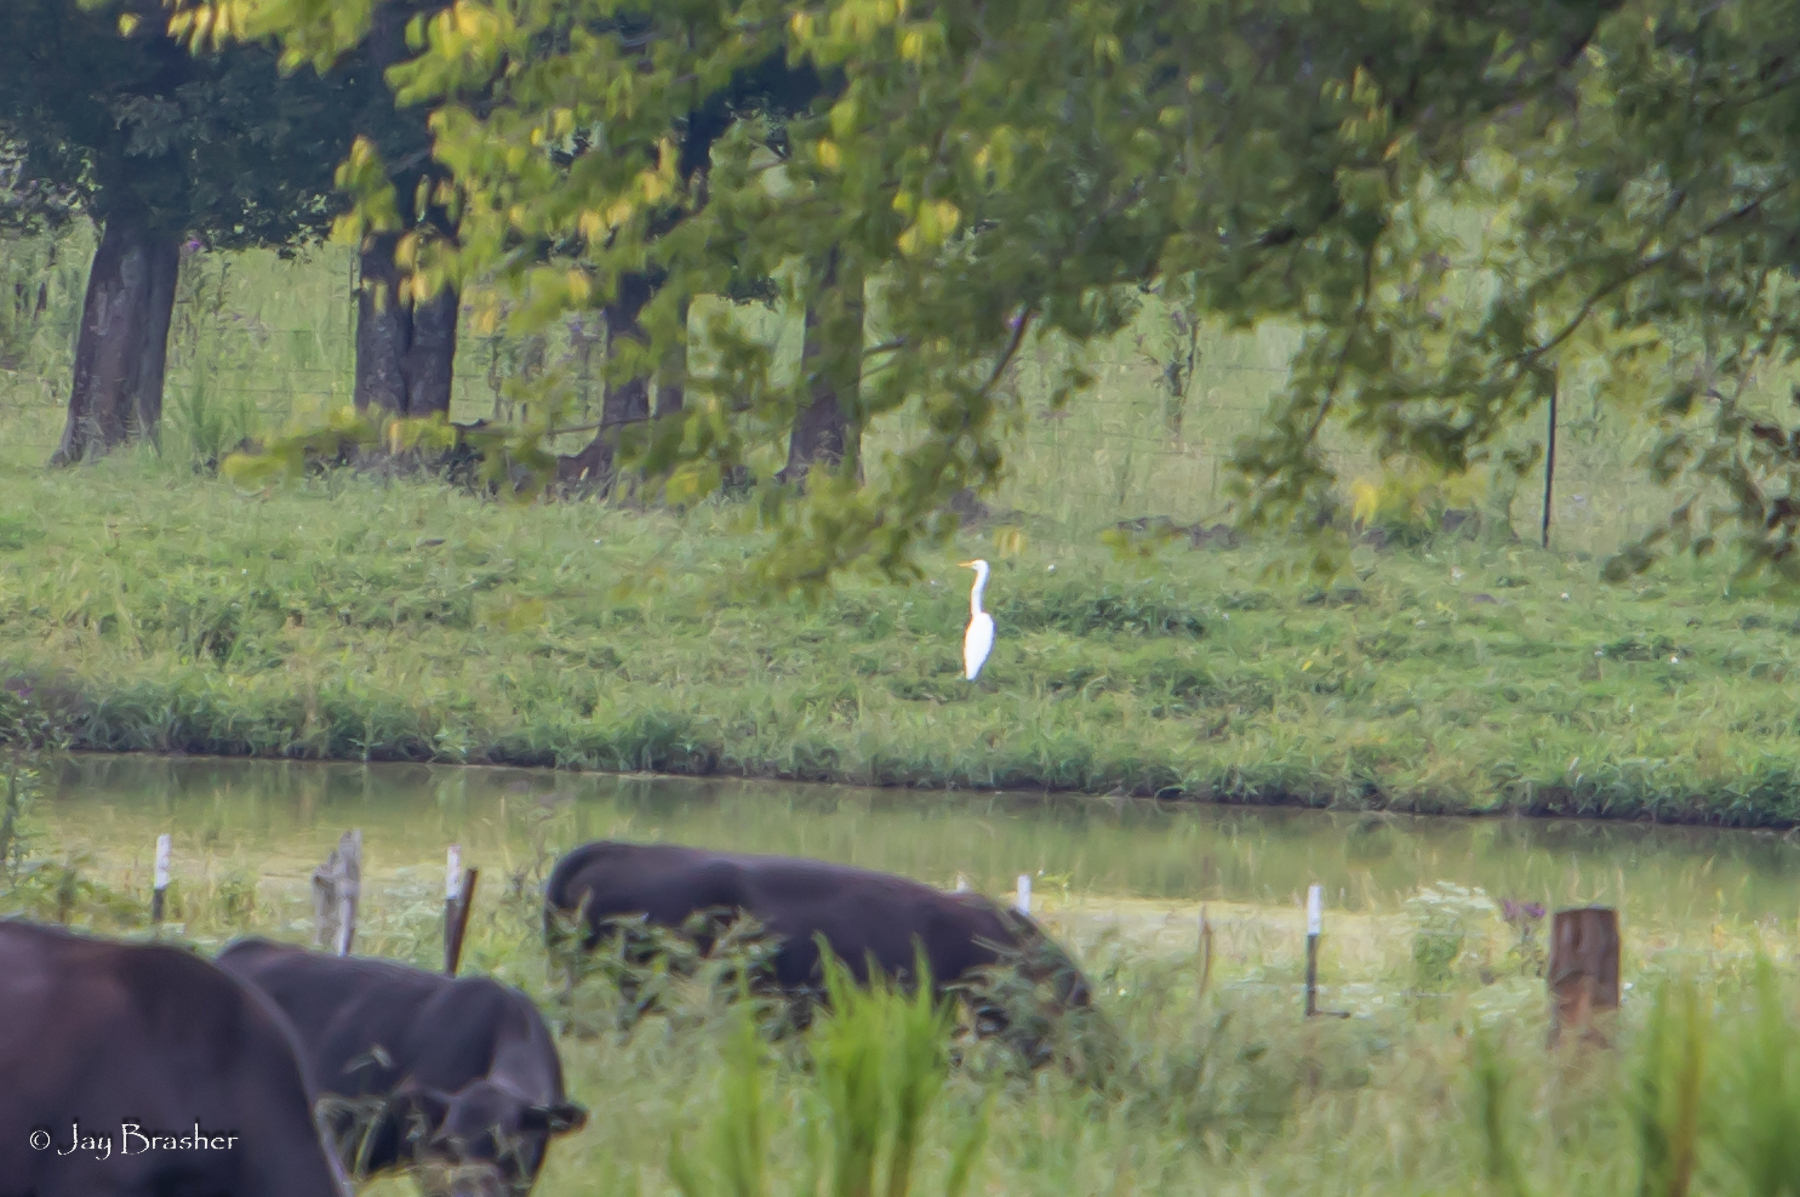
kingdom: Animalia
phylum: Chordata
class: Aves
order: Pelecaniformes
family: Ardeidae
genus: Ardea
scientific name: Ardea alba
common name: Great egret
